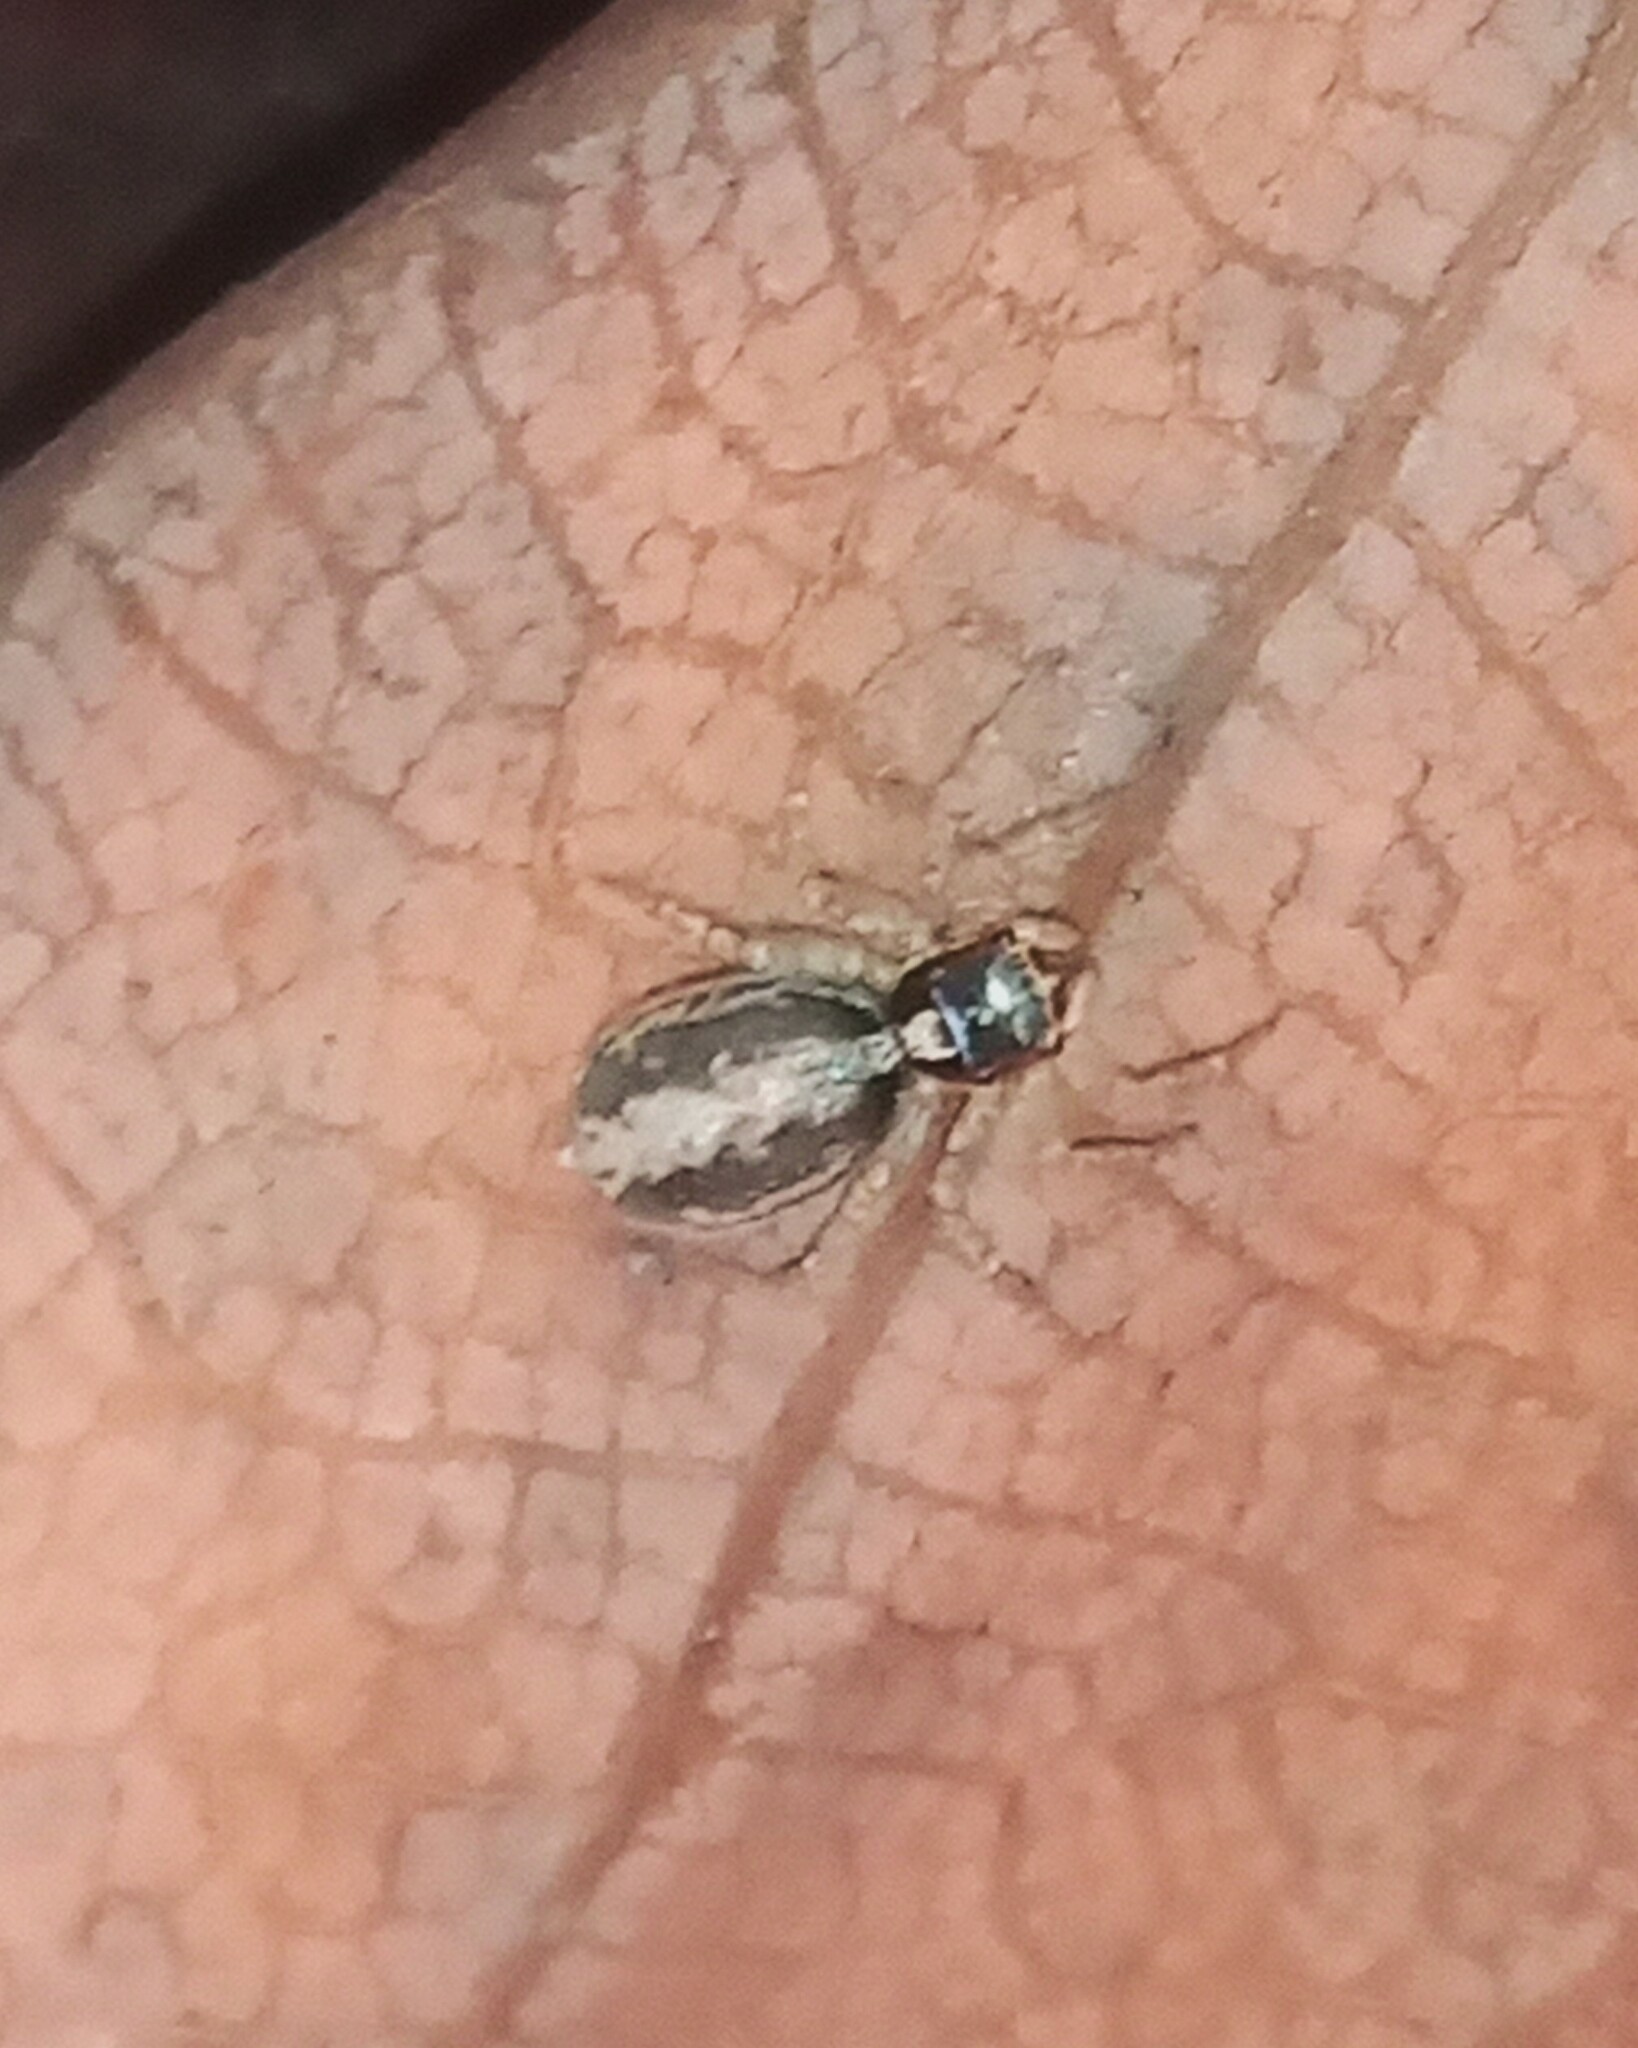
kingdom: Animalia
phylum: Arthropoda
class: Arachnida
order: Araneae
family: Salticidae
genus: Maeota
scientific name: Maeota dichrura
